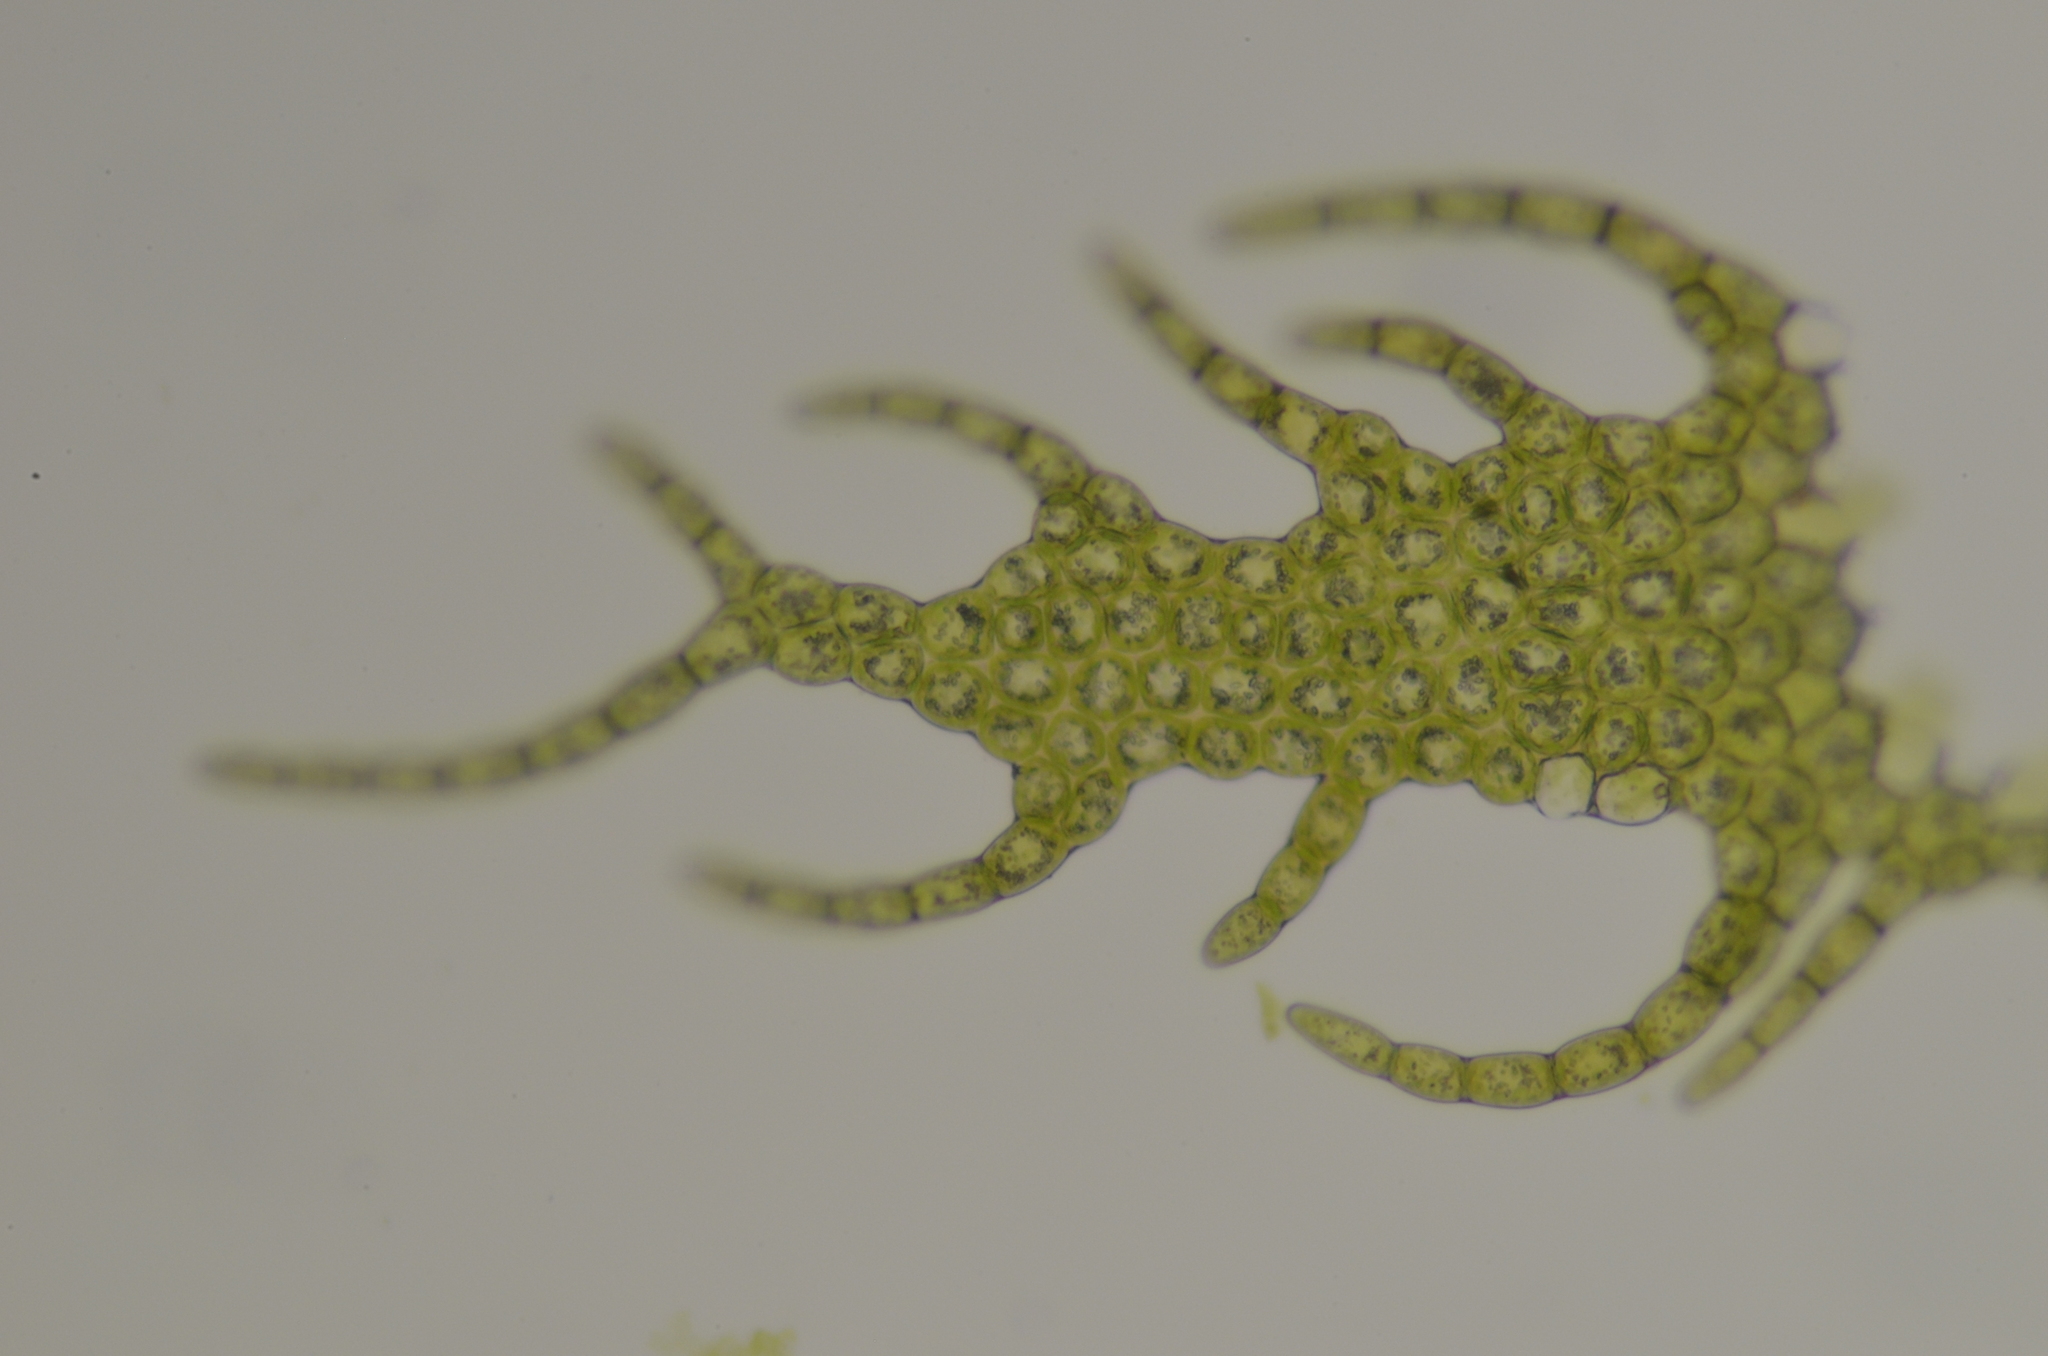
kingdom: Plantae
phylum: Marchantiophyta
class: Jungermanniopsida
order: Ptilidiales
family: Ptilidiaceae
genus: Ptilidium
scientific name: Ptilidium pulcherrimum
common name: Tree fringewort
